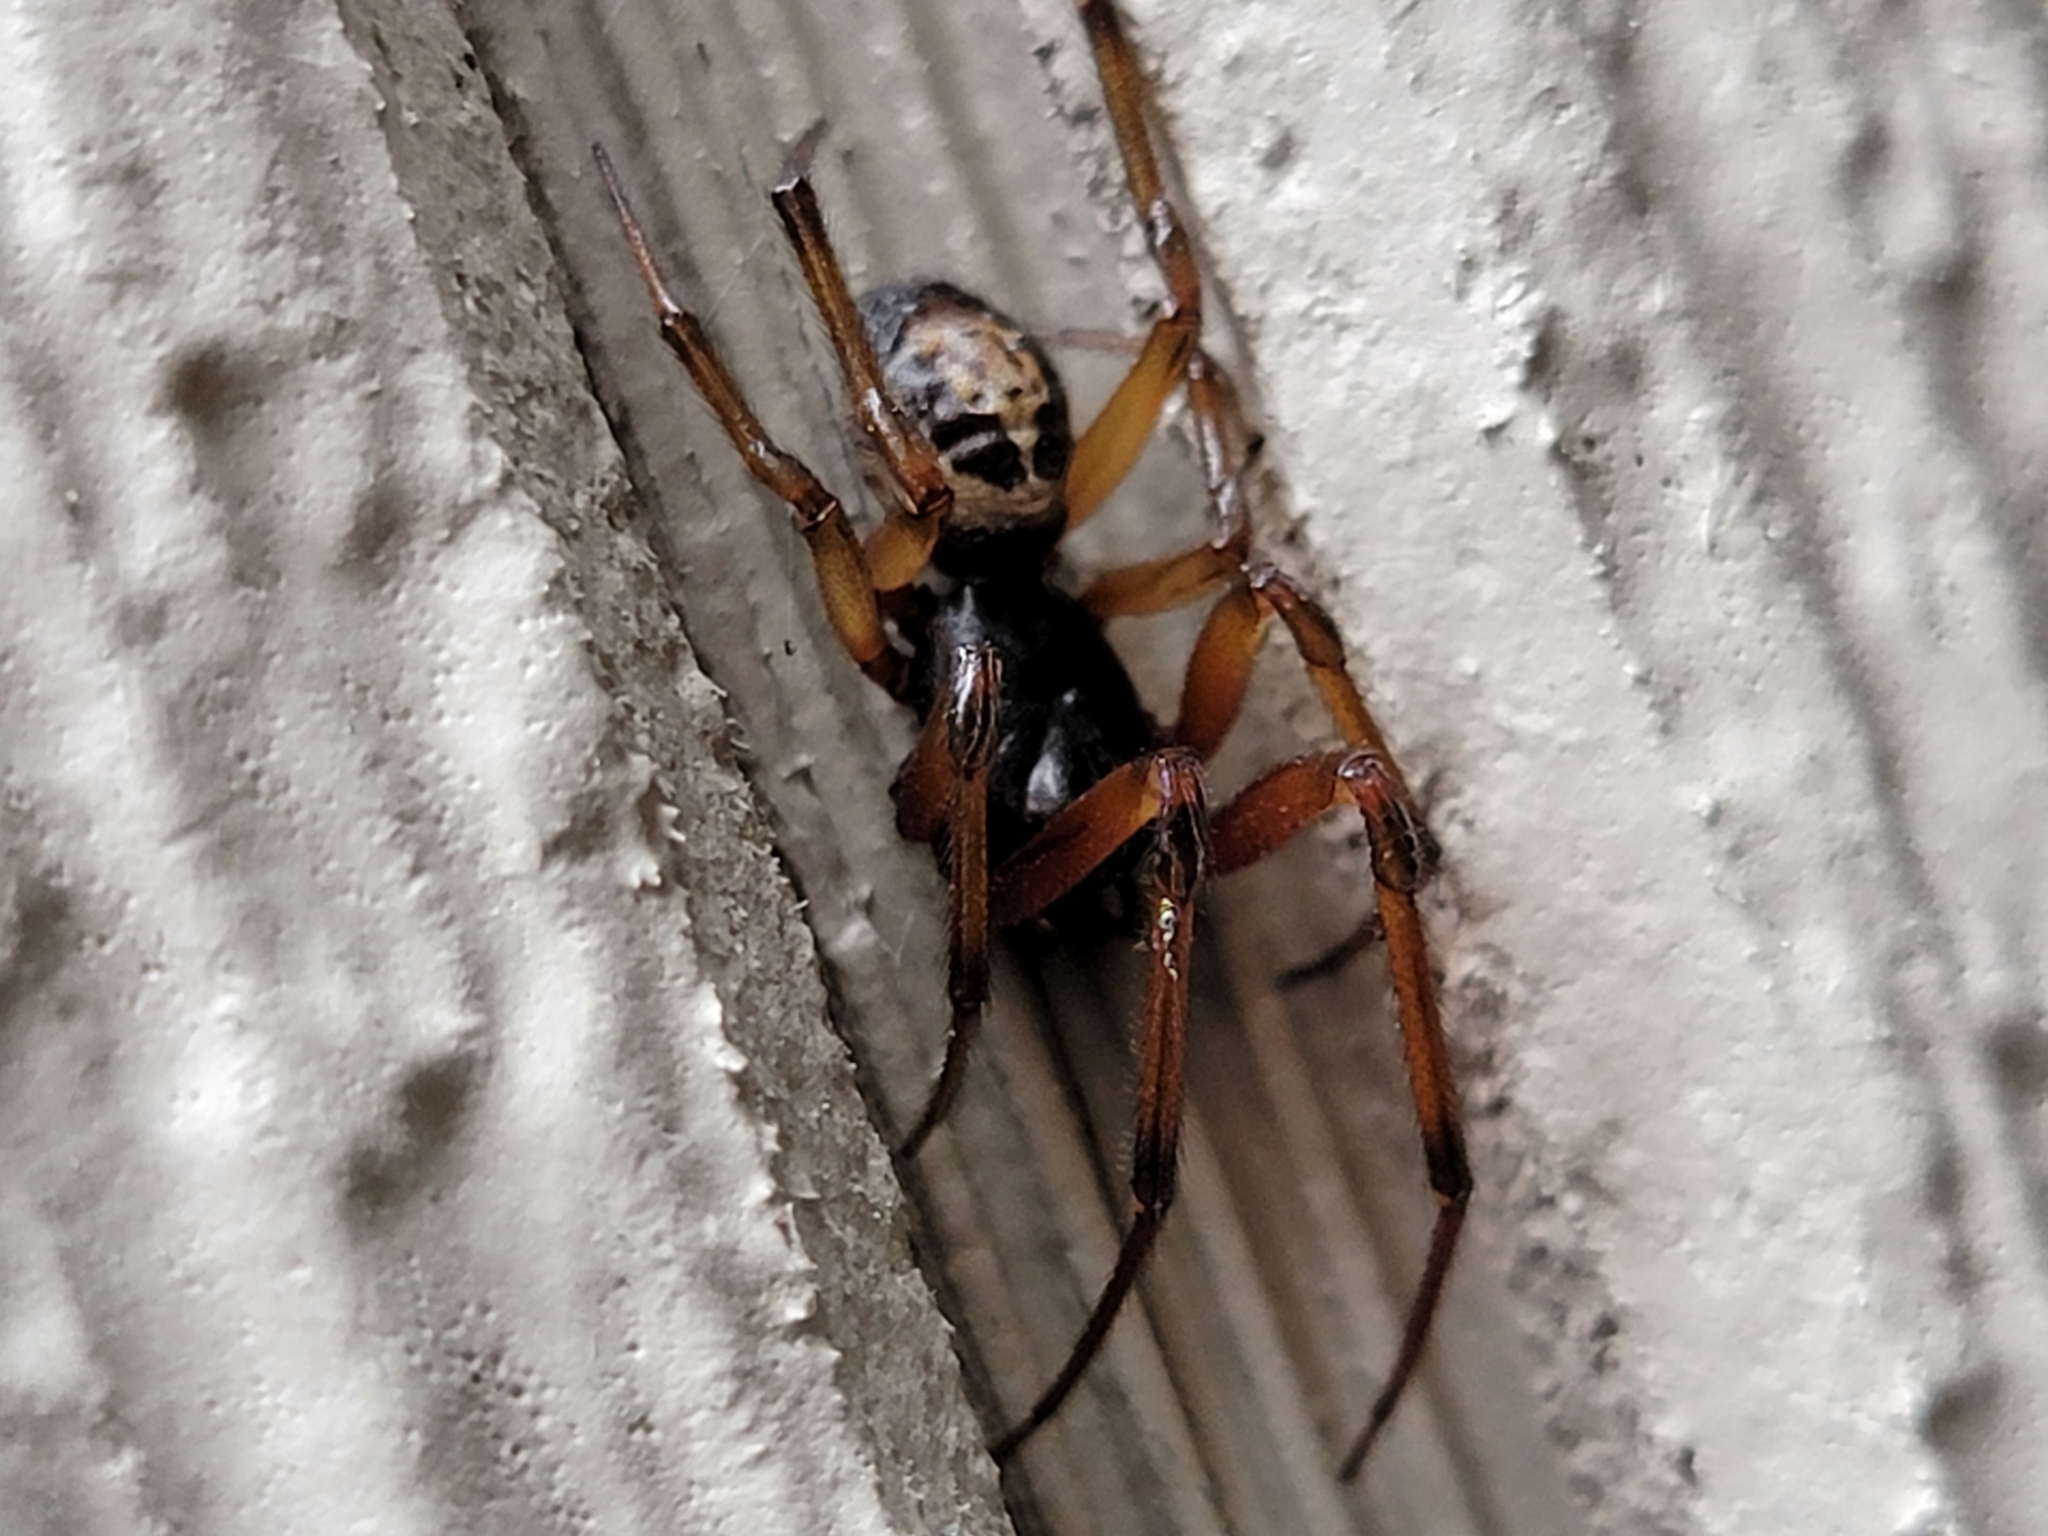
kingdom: Animalia
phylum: Arthropoda
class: Arachnida
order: Araneae
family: Theridiidae
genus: Steatoda
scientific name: Steatoda nobilis
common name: Cobweb weaver
